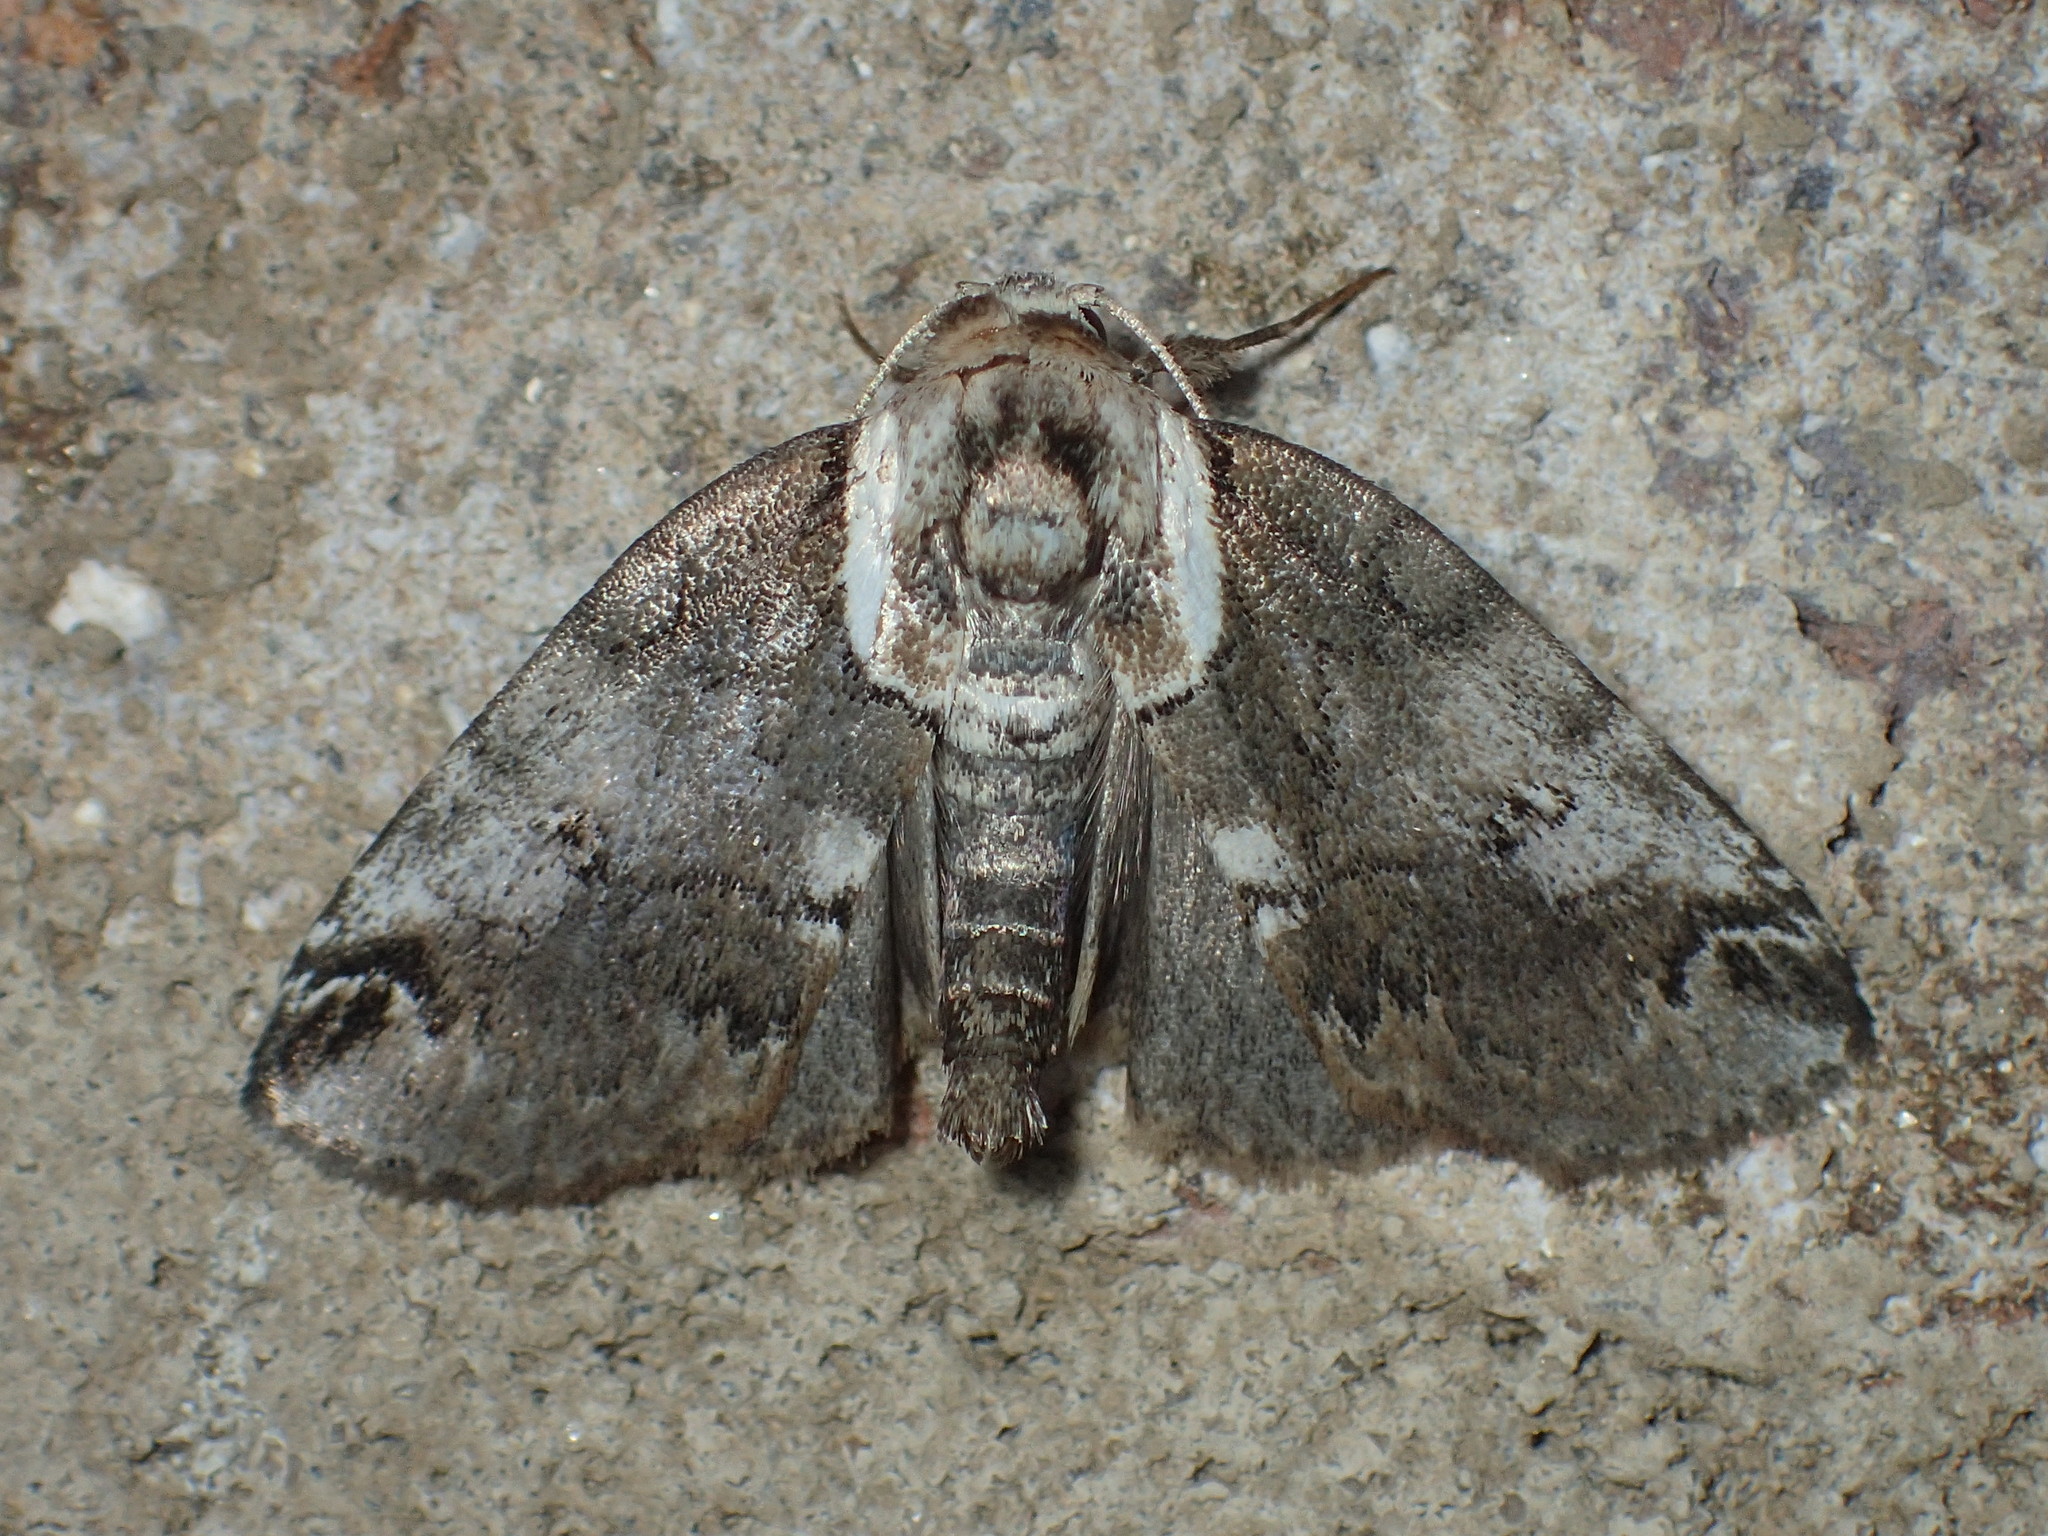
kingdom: Animalia
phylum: Arthropoda
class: Insecta
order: Lepidoptera
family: Nolidae
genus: Baileya
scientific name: Baileya ophthalmica
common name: Eyed baileya moth
